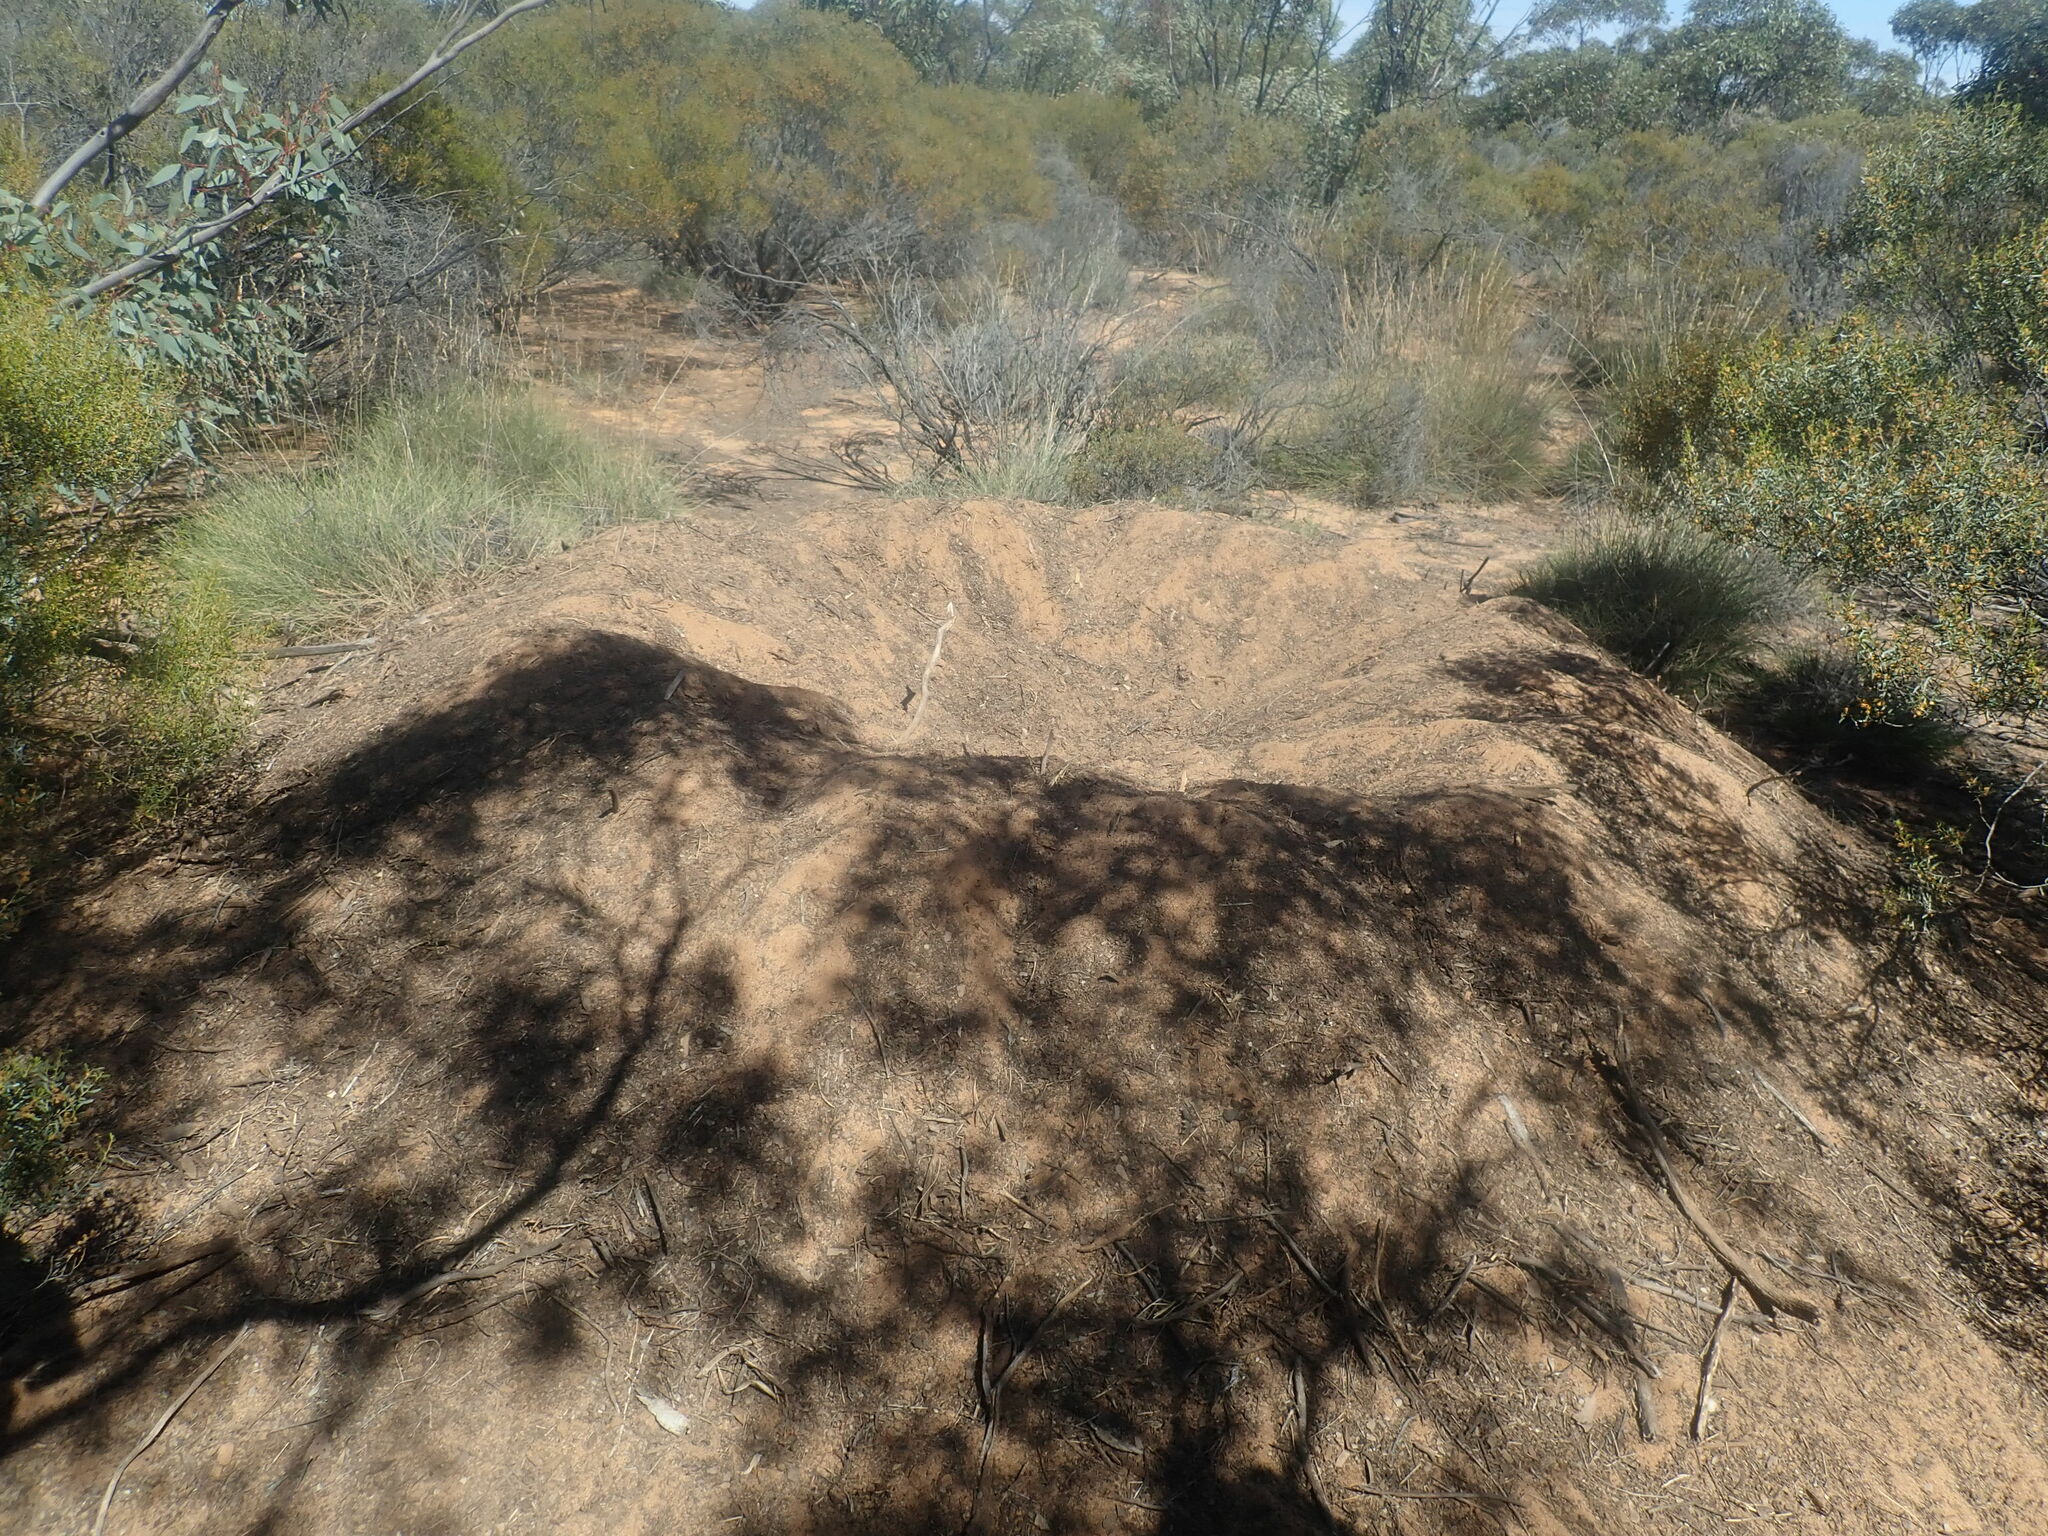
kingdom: Animalia
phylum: Chordata
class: Aves
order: Galliformes
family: Megapodiidae
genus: Leipoa
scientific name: Leipoa ocellata
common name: Malleefowl
